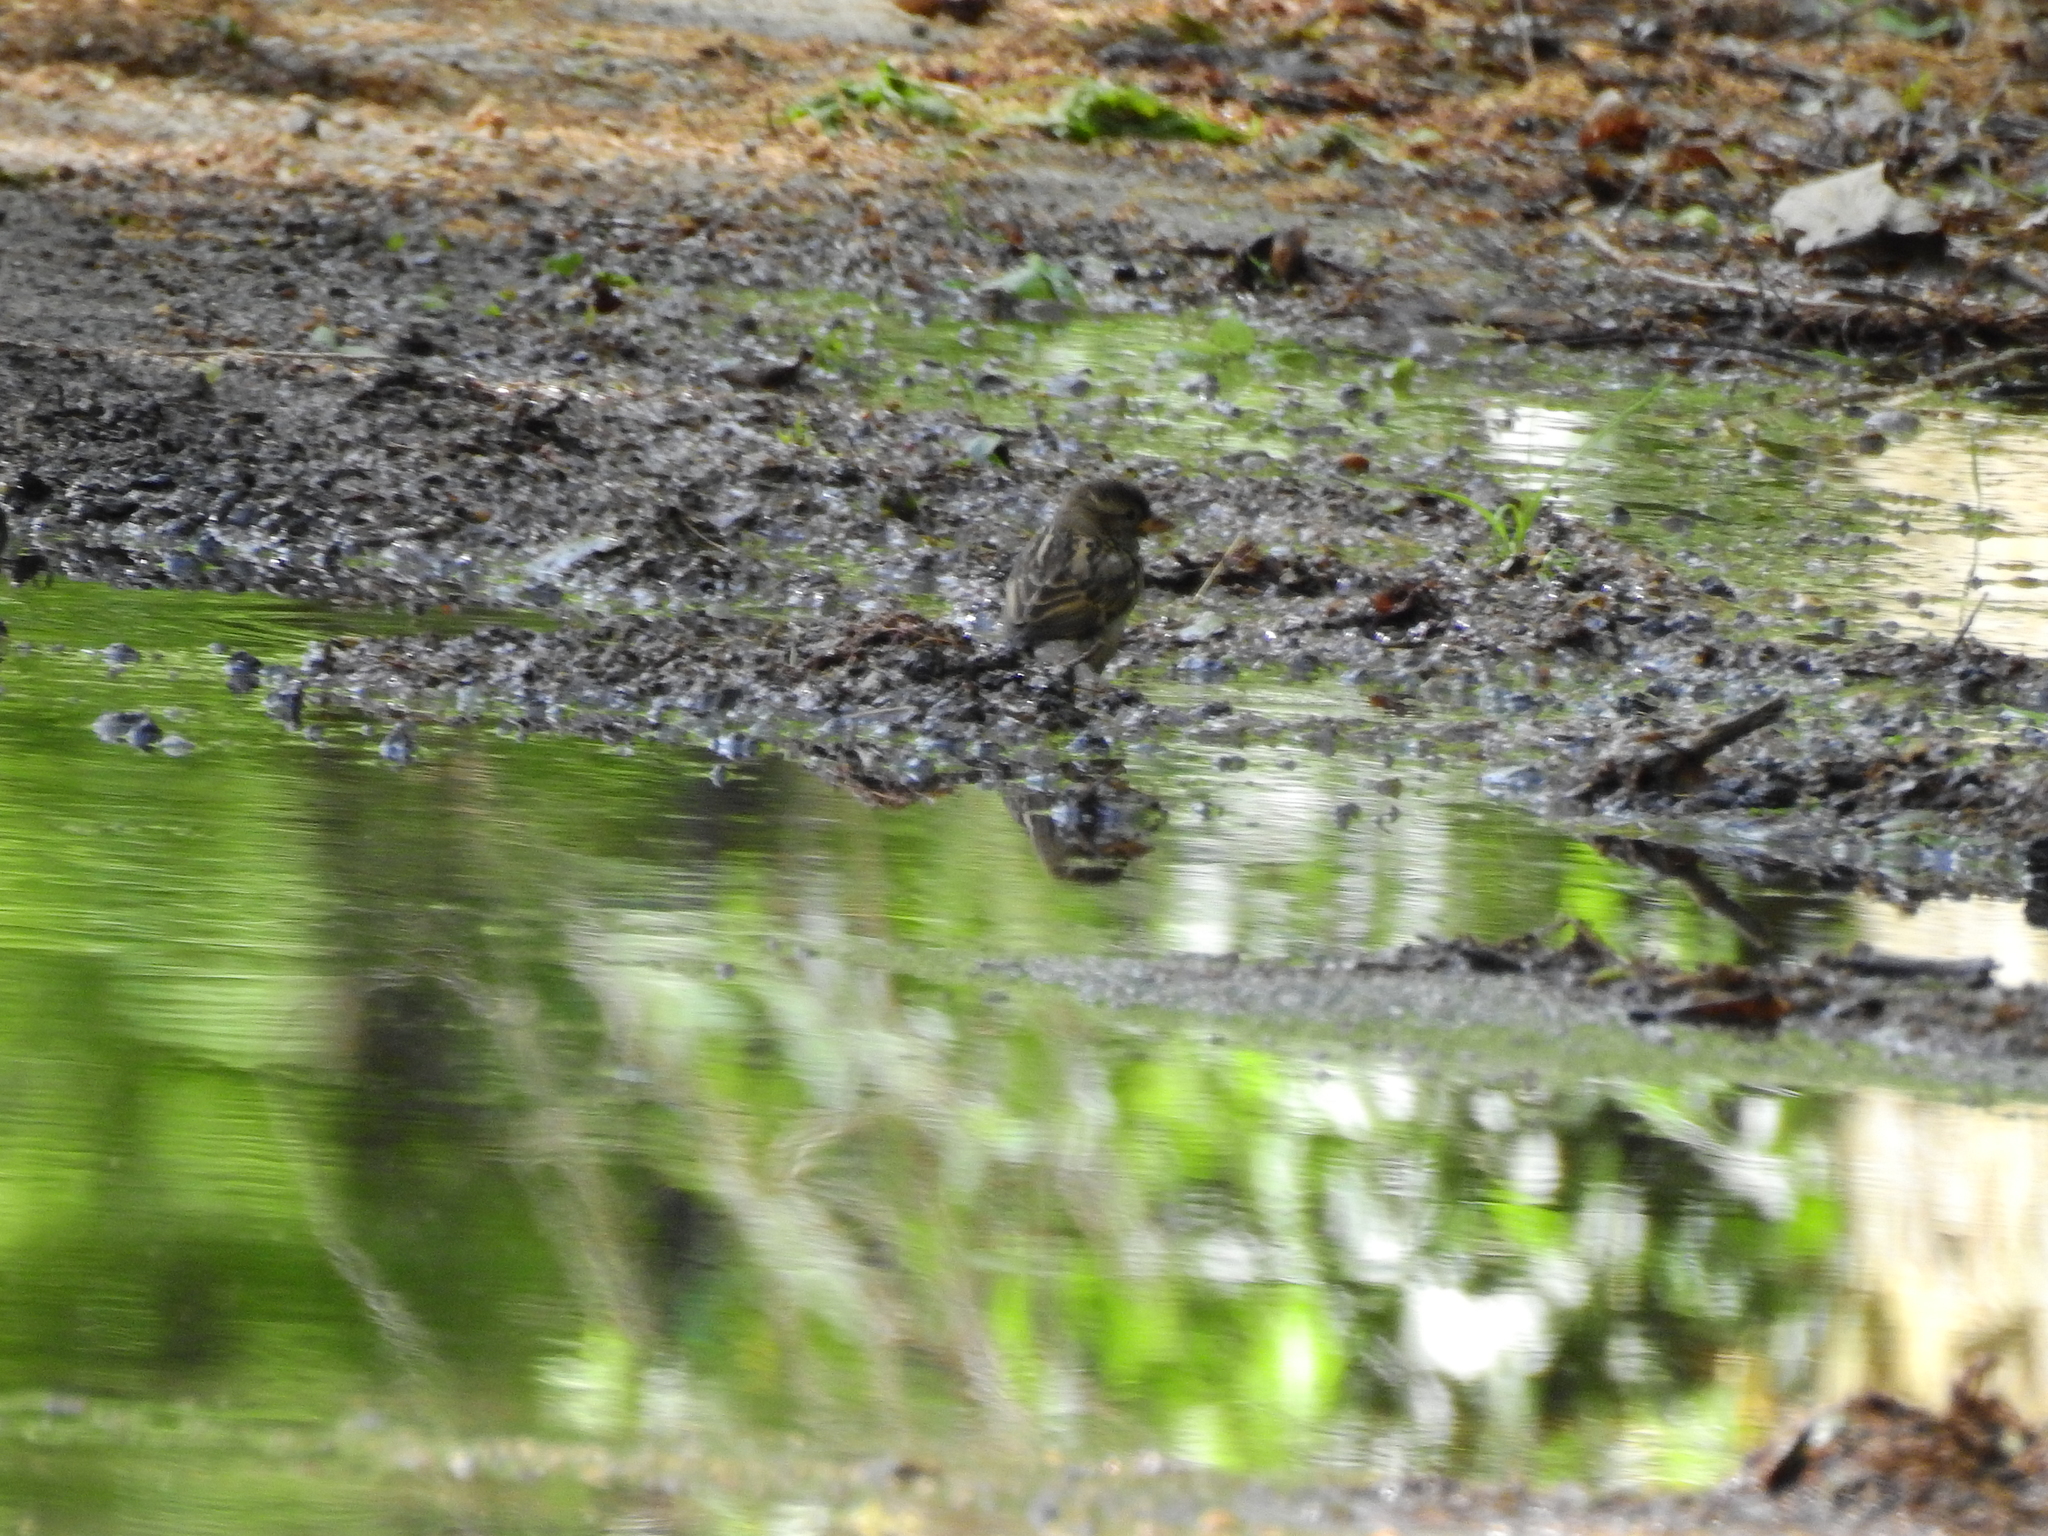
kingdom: Animalia
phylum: Chordata
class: Aves
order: Passeriformes
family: Passeridae
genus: Passer
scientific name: Passer domesticus
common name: House sparrow
